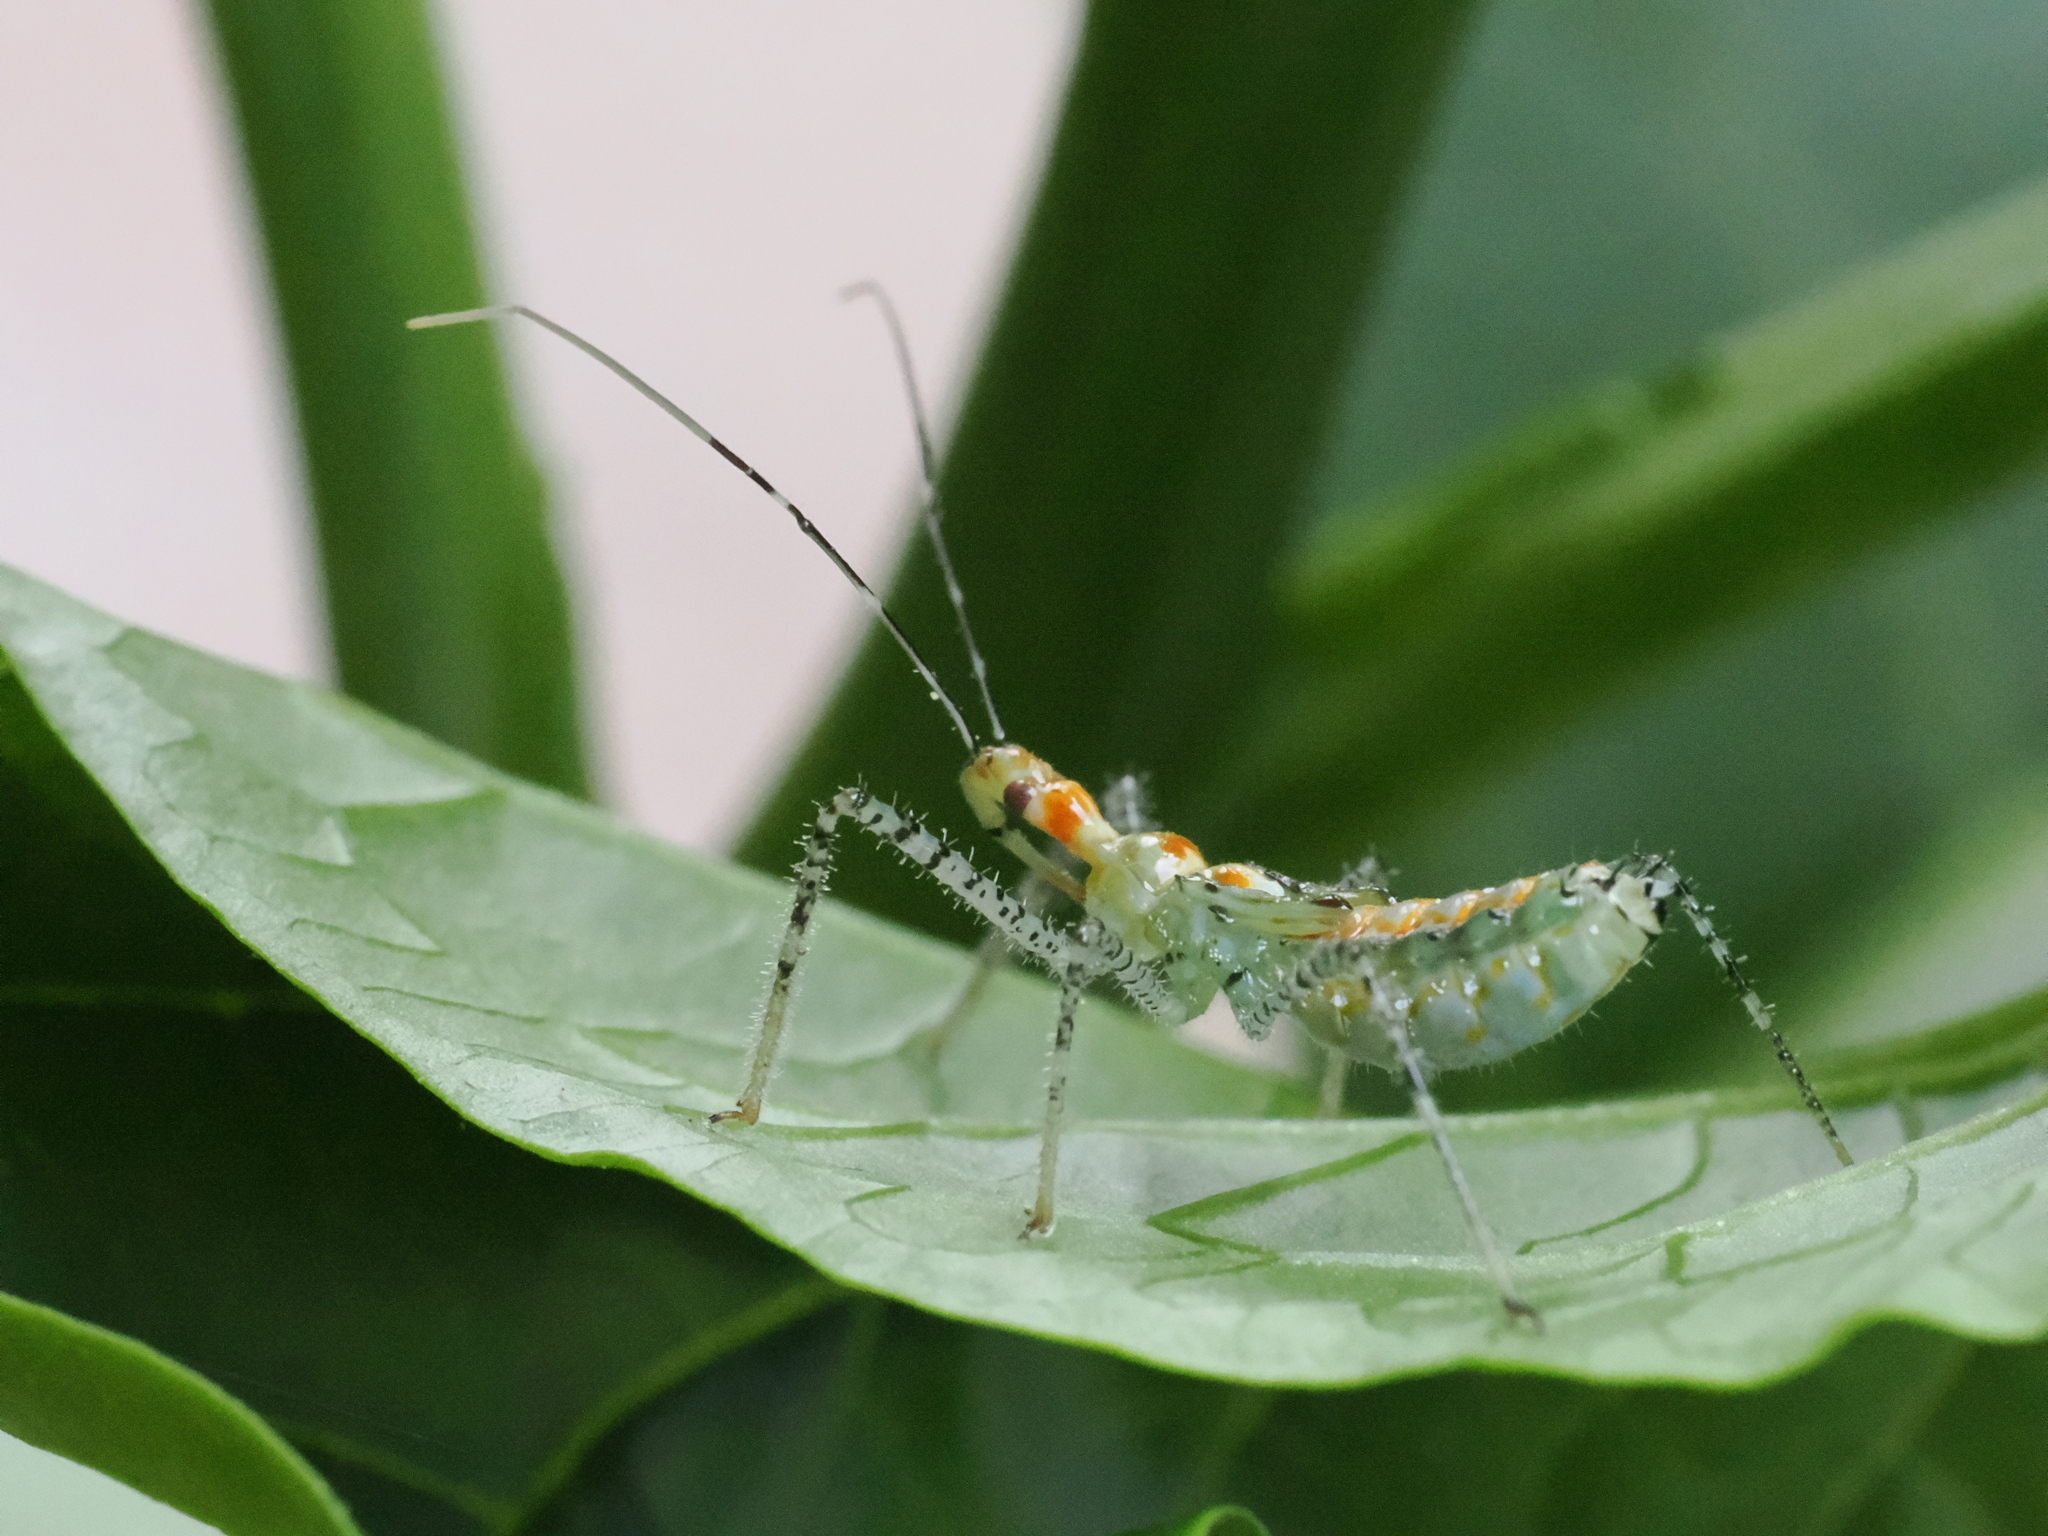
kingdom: Animalia
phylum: Arthropoda
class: Insecta
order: Hemiptera
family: Reduviidae
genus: Zelus
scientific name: Zelus renardii
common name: Assassin bug
